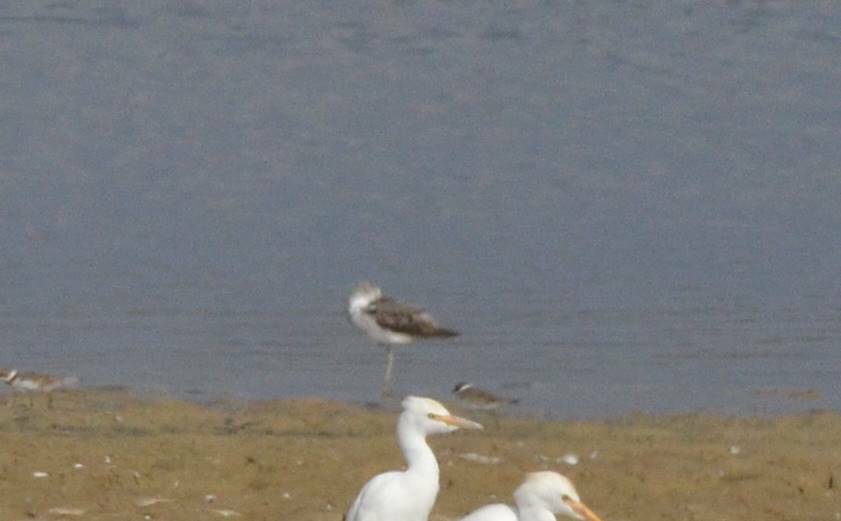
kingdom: Animalia
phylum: Chordata
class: Aves
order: Charadriiformes
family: Scolopacidae
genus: Tringa
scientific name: Tringa nebularia
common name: Common greenshank
